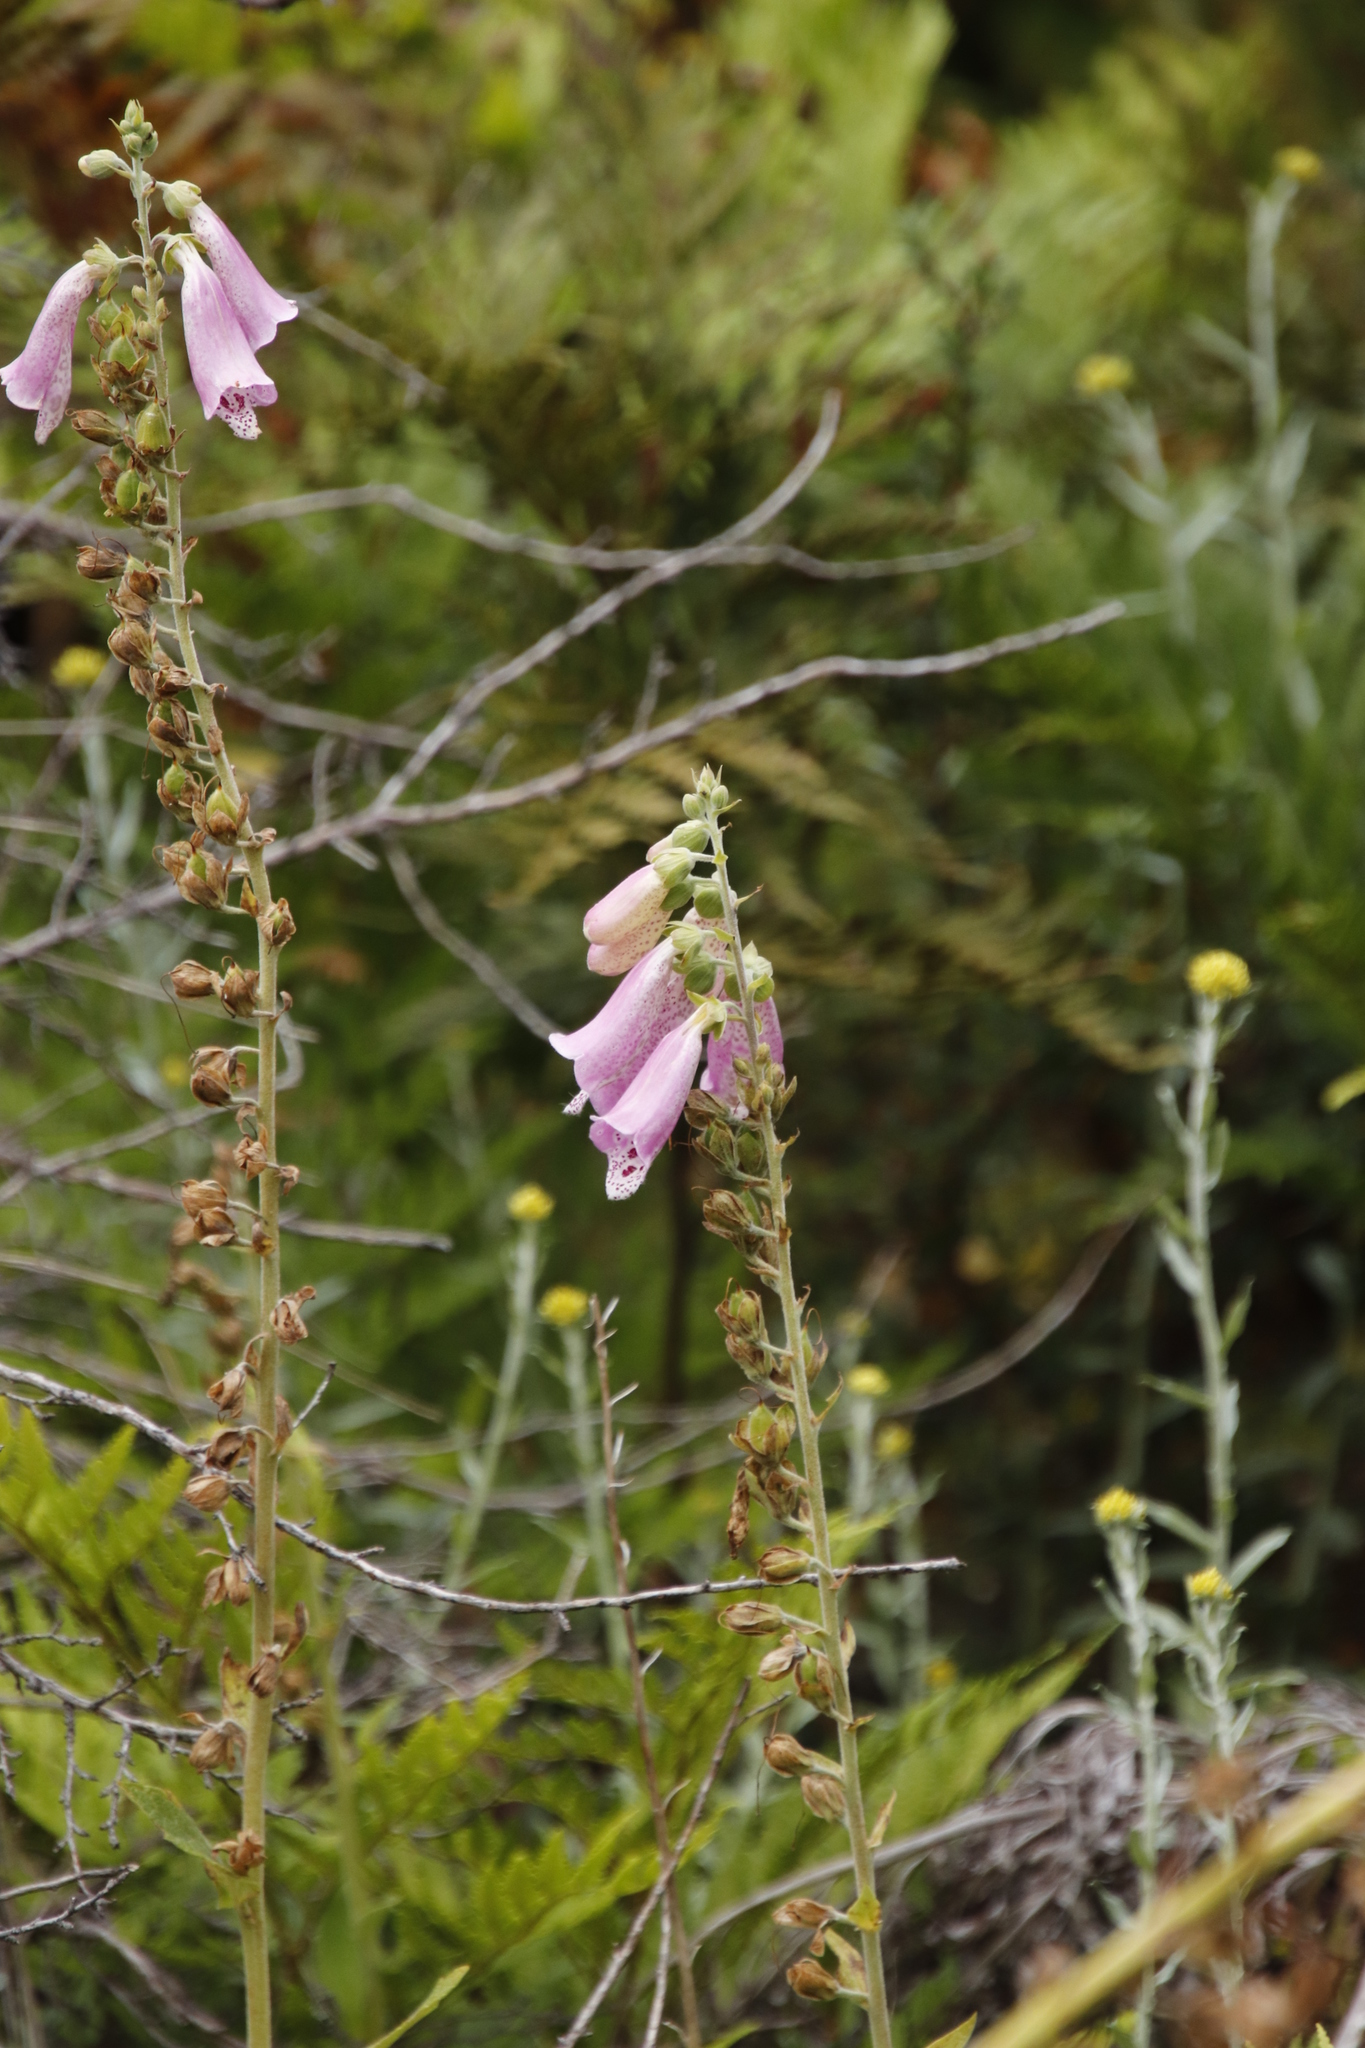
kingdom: Plantae
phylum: Tracheophyta
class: Magnoliopsida
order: Lamiales
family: Plantaginaceae
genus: Digitalis
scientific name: Digitalis purpurea
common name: Foxglove
